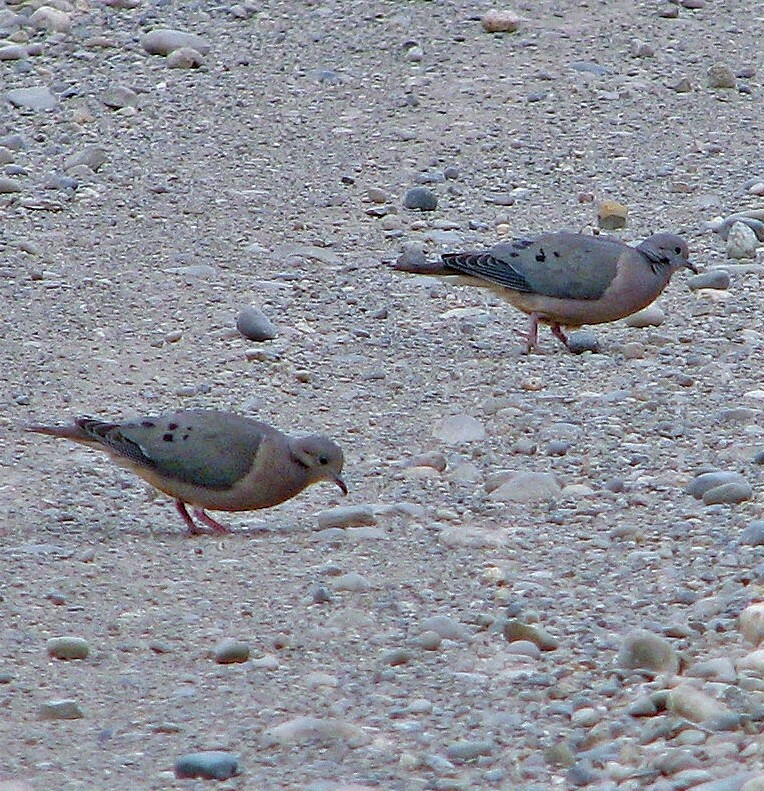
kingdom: Animalia
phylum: Chordata
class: Aves
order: Columbiformes
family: Columbidae
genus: Zenaida
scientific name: Zenaida auriculata
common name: Eared dove
